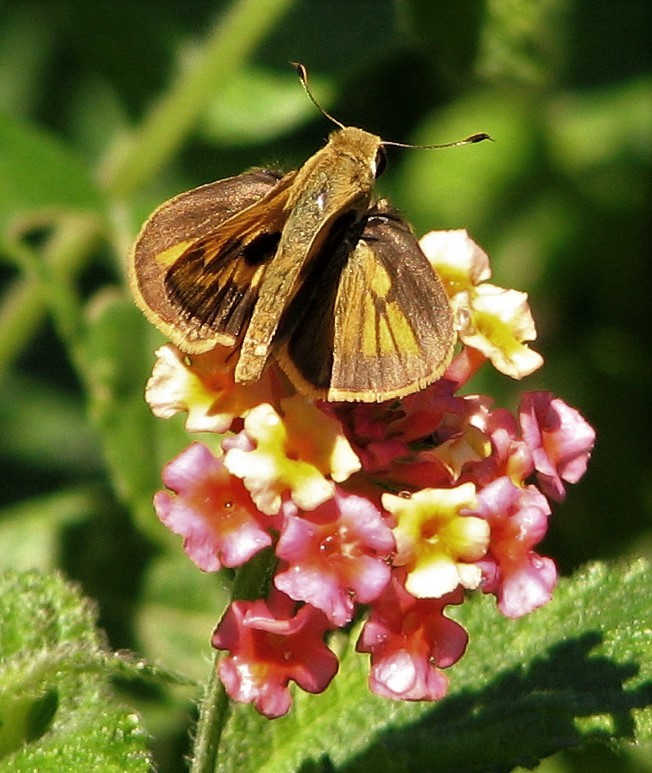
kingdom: Animalia
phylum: Arthropoda
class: Insecta
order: Lepidoptera
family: Hesperiidae
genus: Polites
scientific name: Polites vibex
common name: Whirlabout
